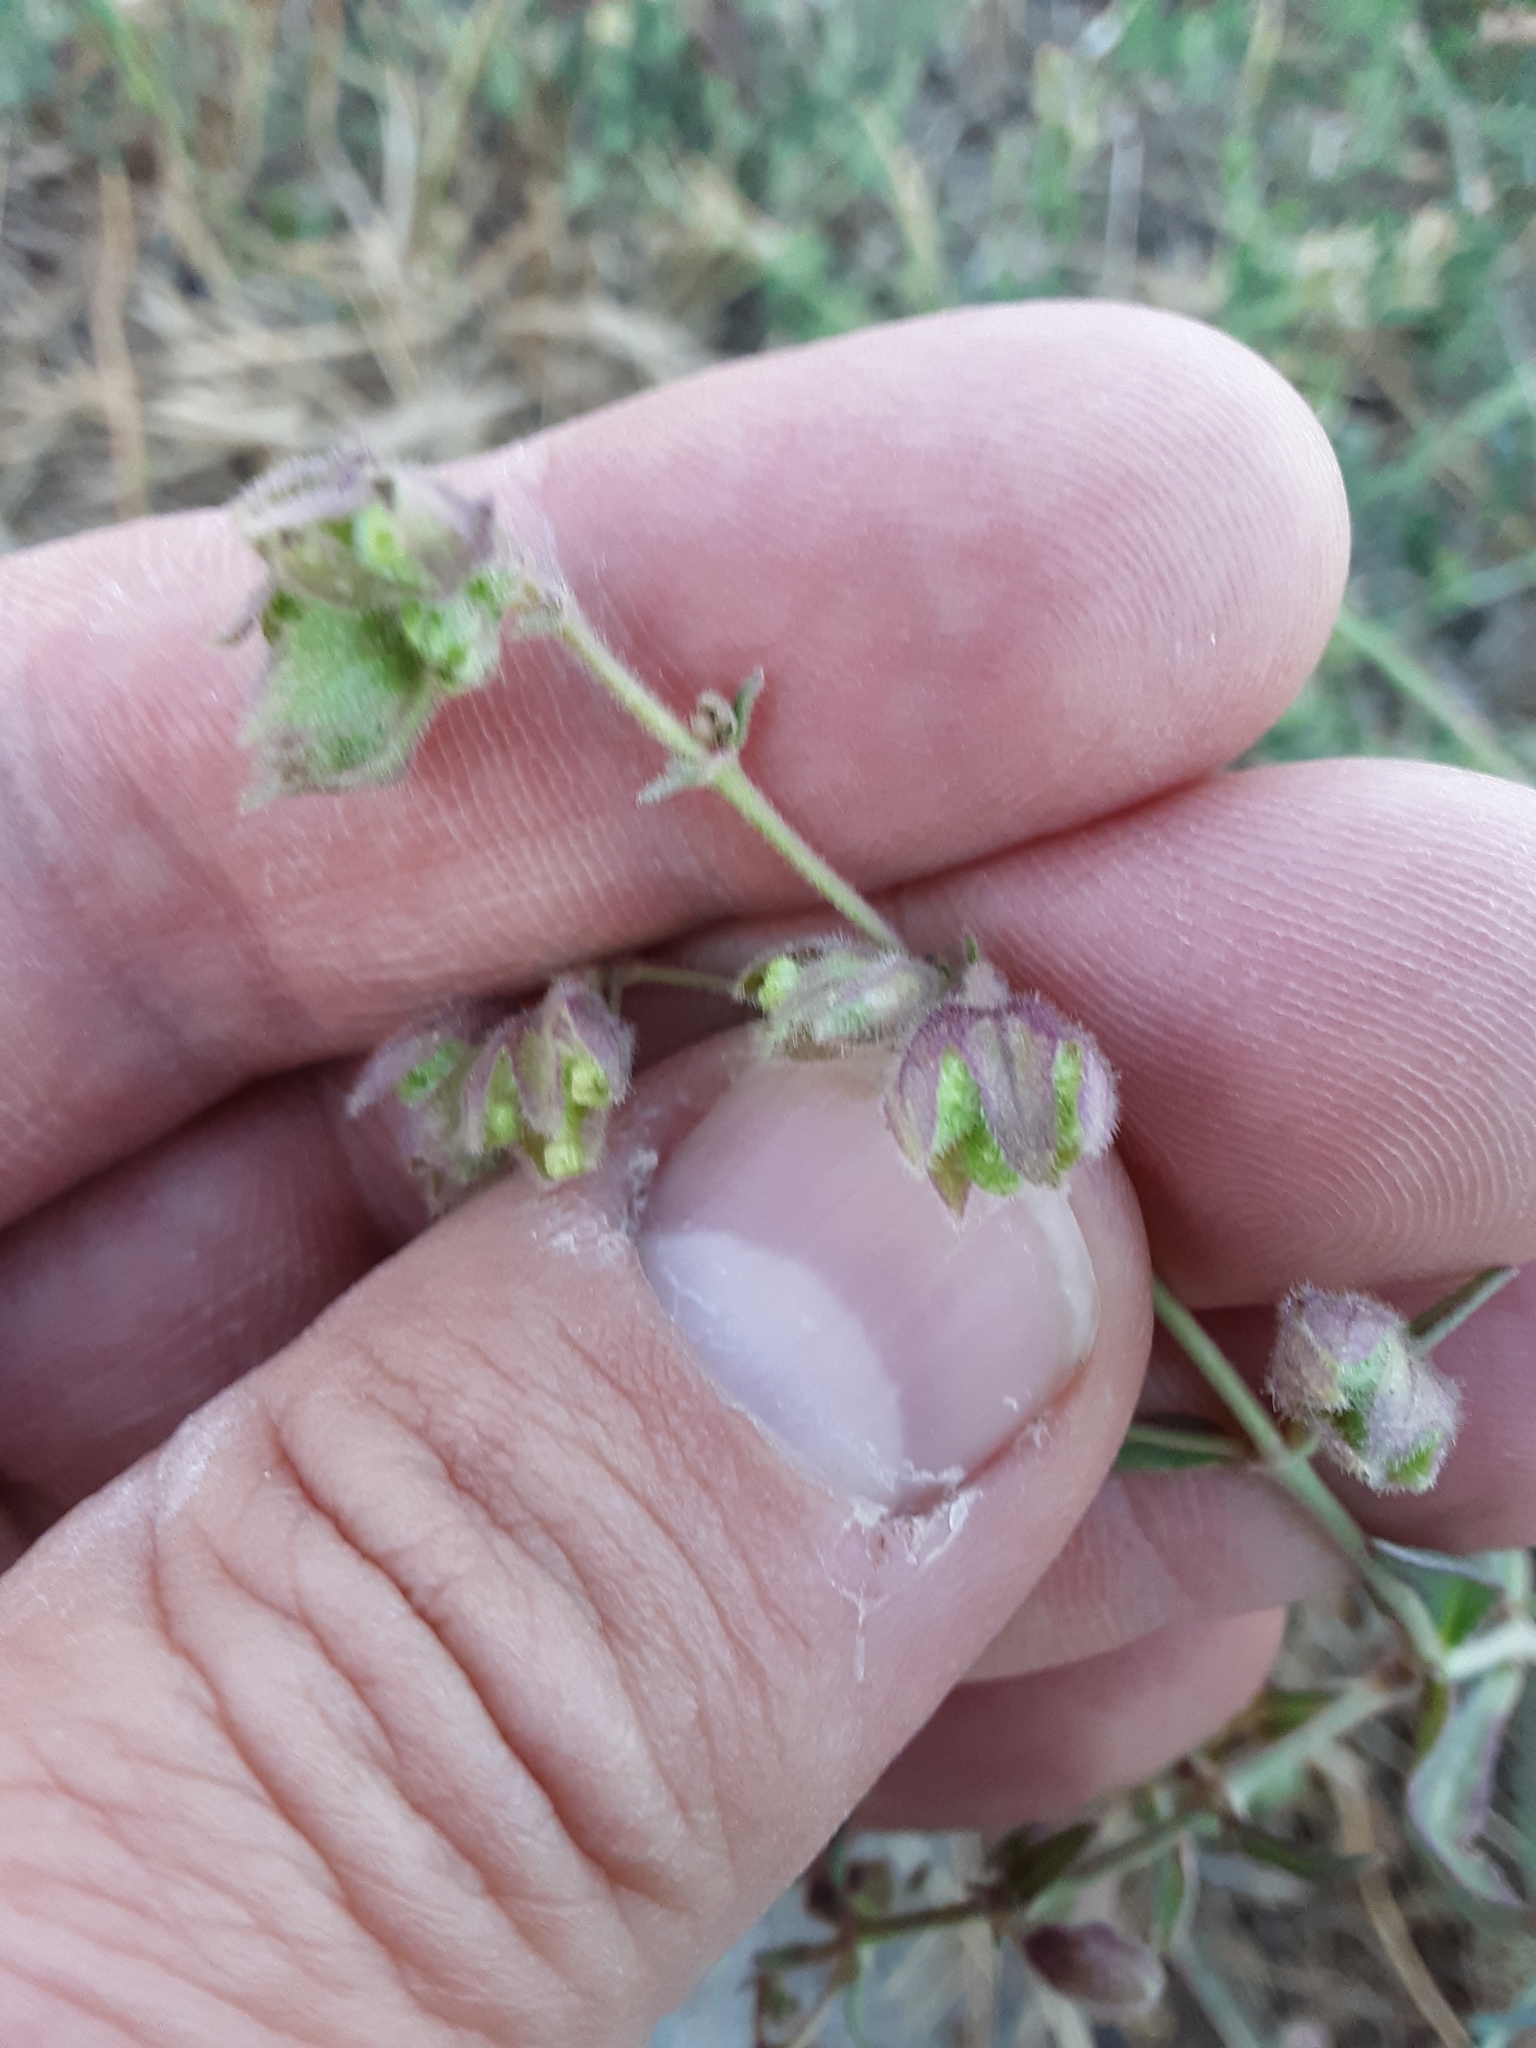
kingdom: Plantae
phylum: Tracheophyta
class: Magnoliopsida
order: Caryophyllales
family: Nyctaginaceae
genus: Mirabilis
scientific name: Mirabilis linearis
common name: Linear-leaved four-o'clock
